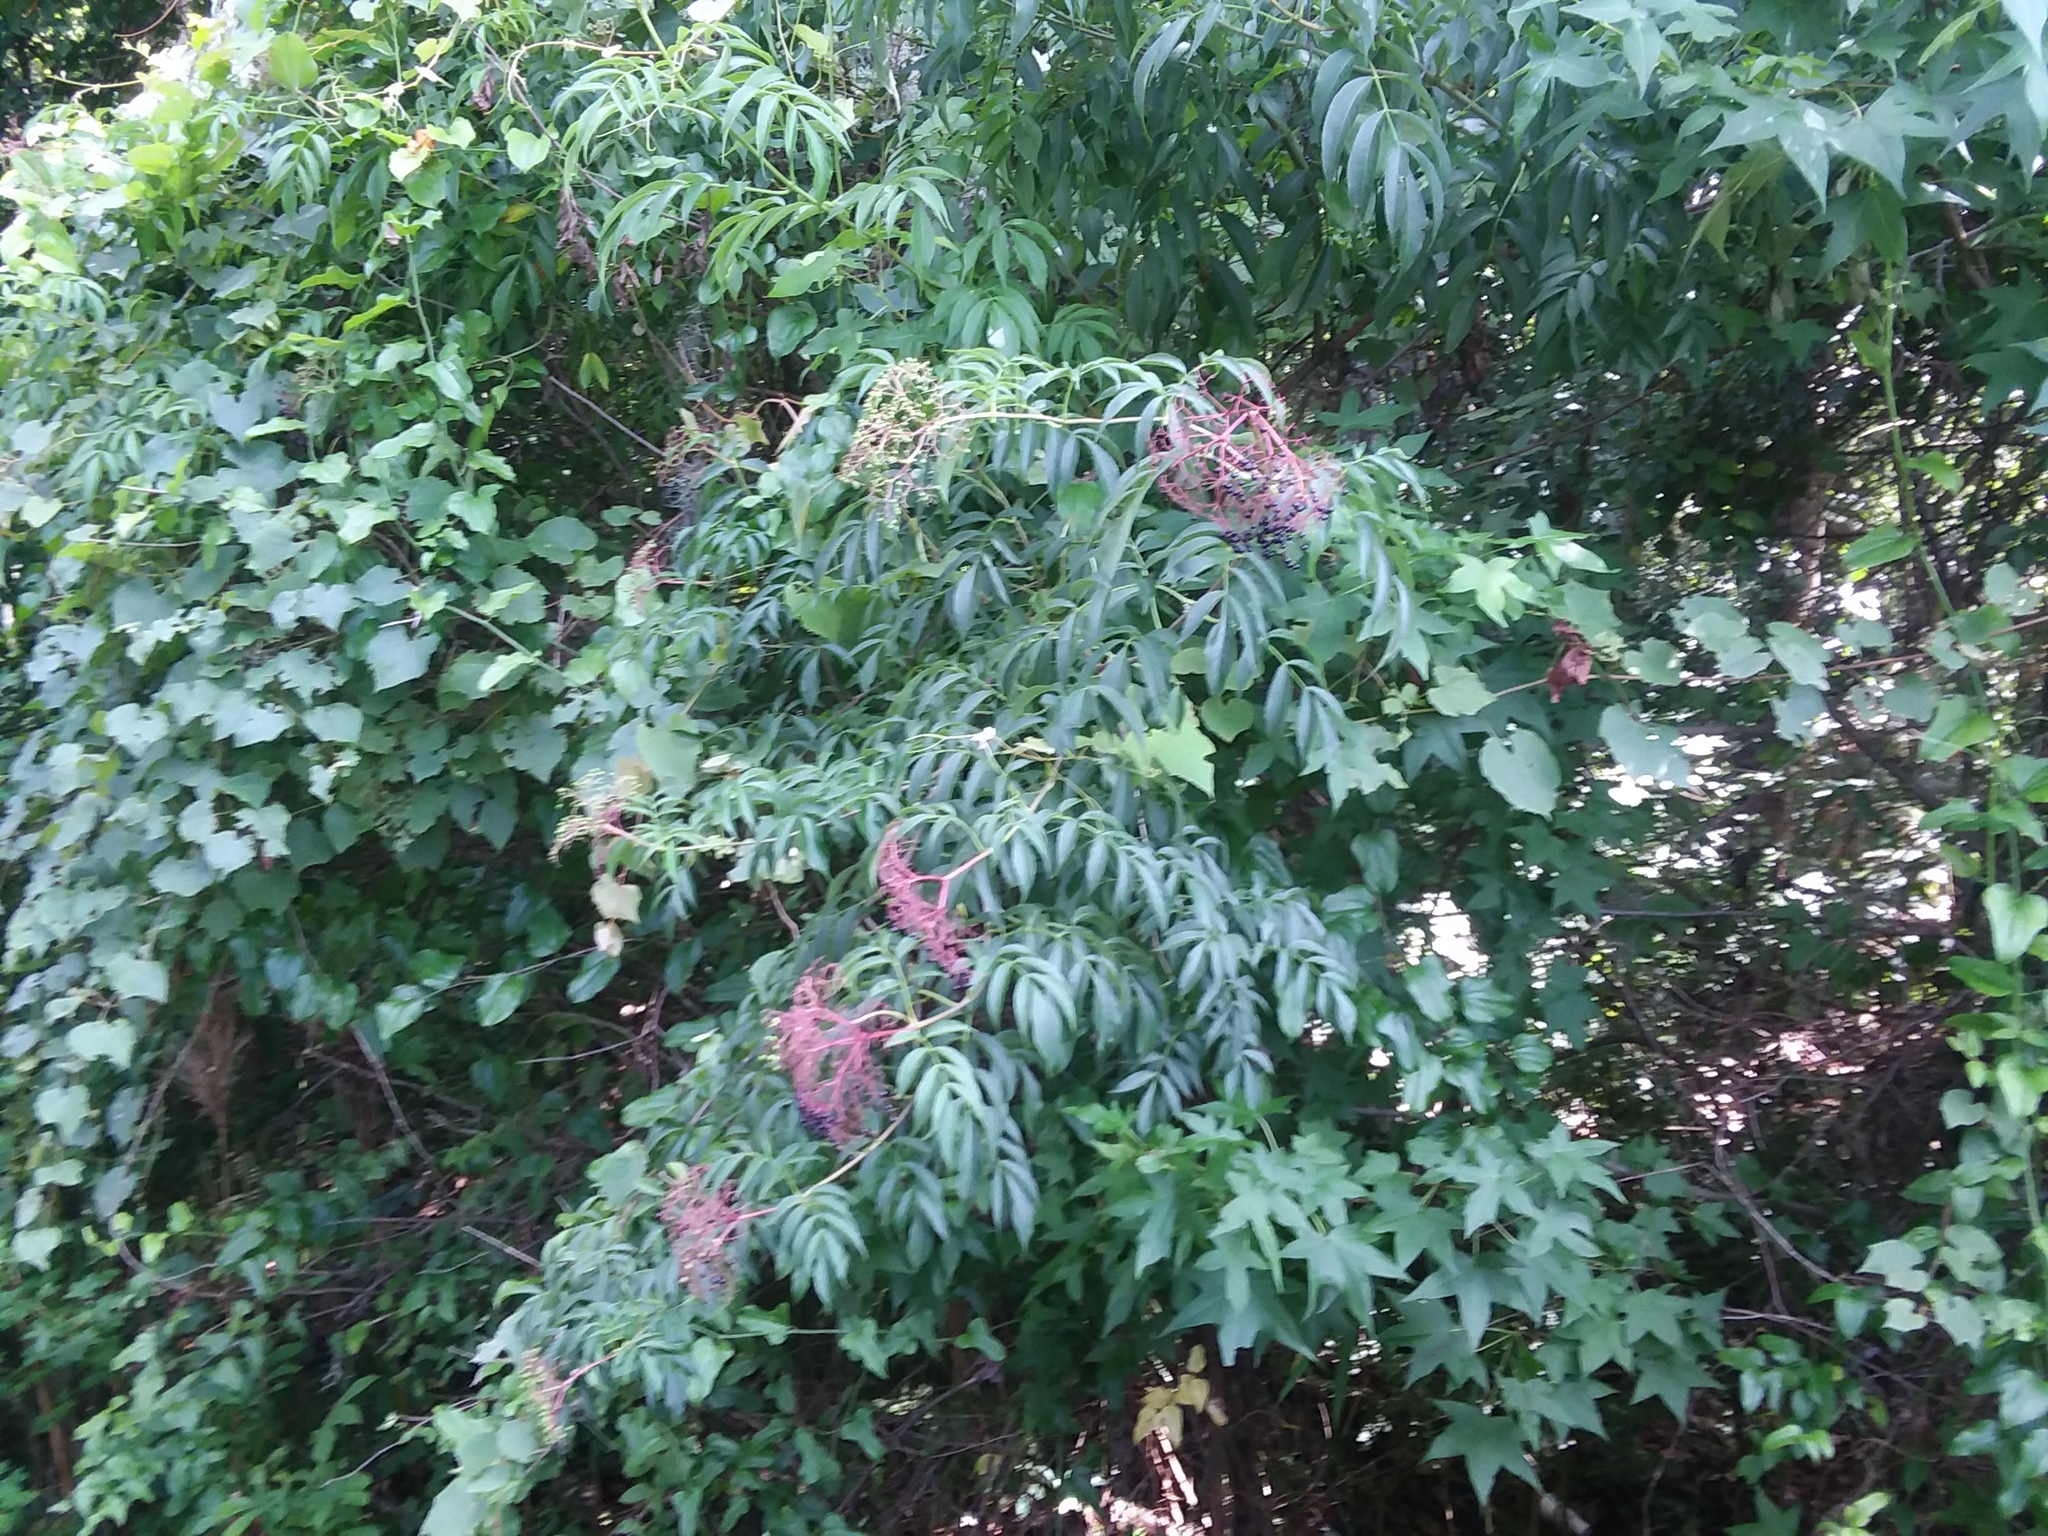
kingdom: Plantae
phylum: Tracheophyta
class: Magnoliopsida
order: Dipsacales
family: Viburnaceae
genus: Sambucus
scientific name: Sambucus canadensis
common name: American elder
